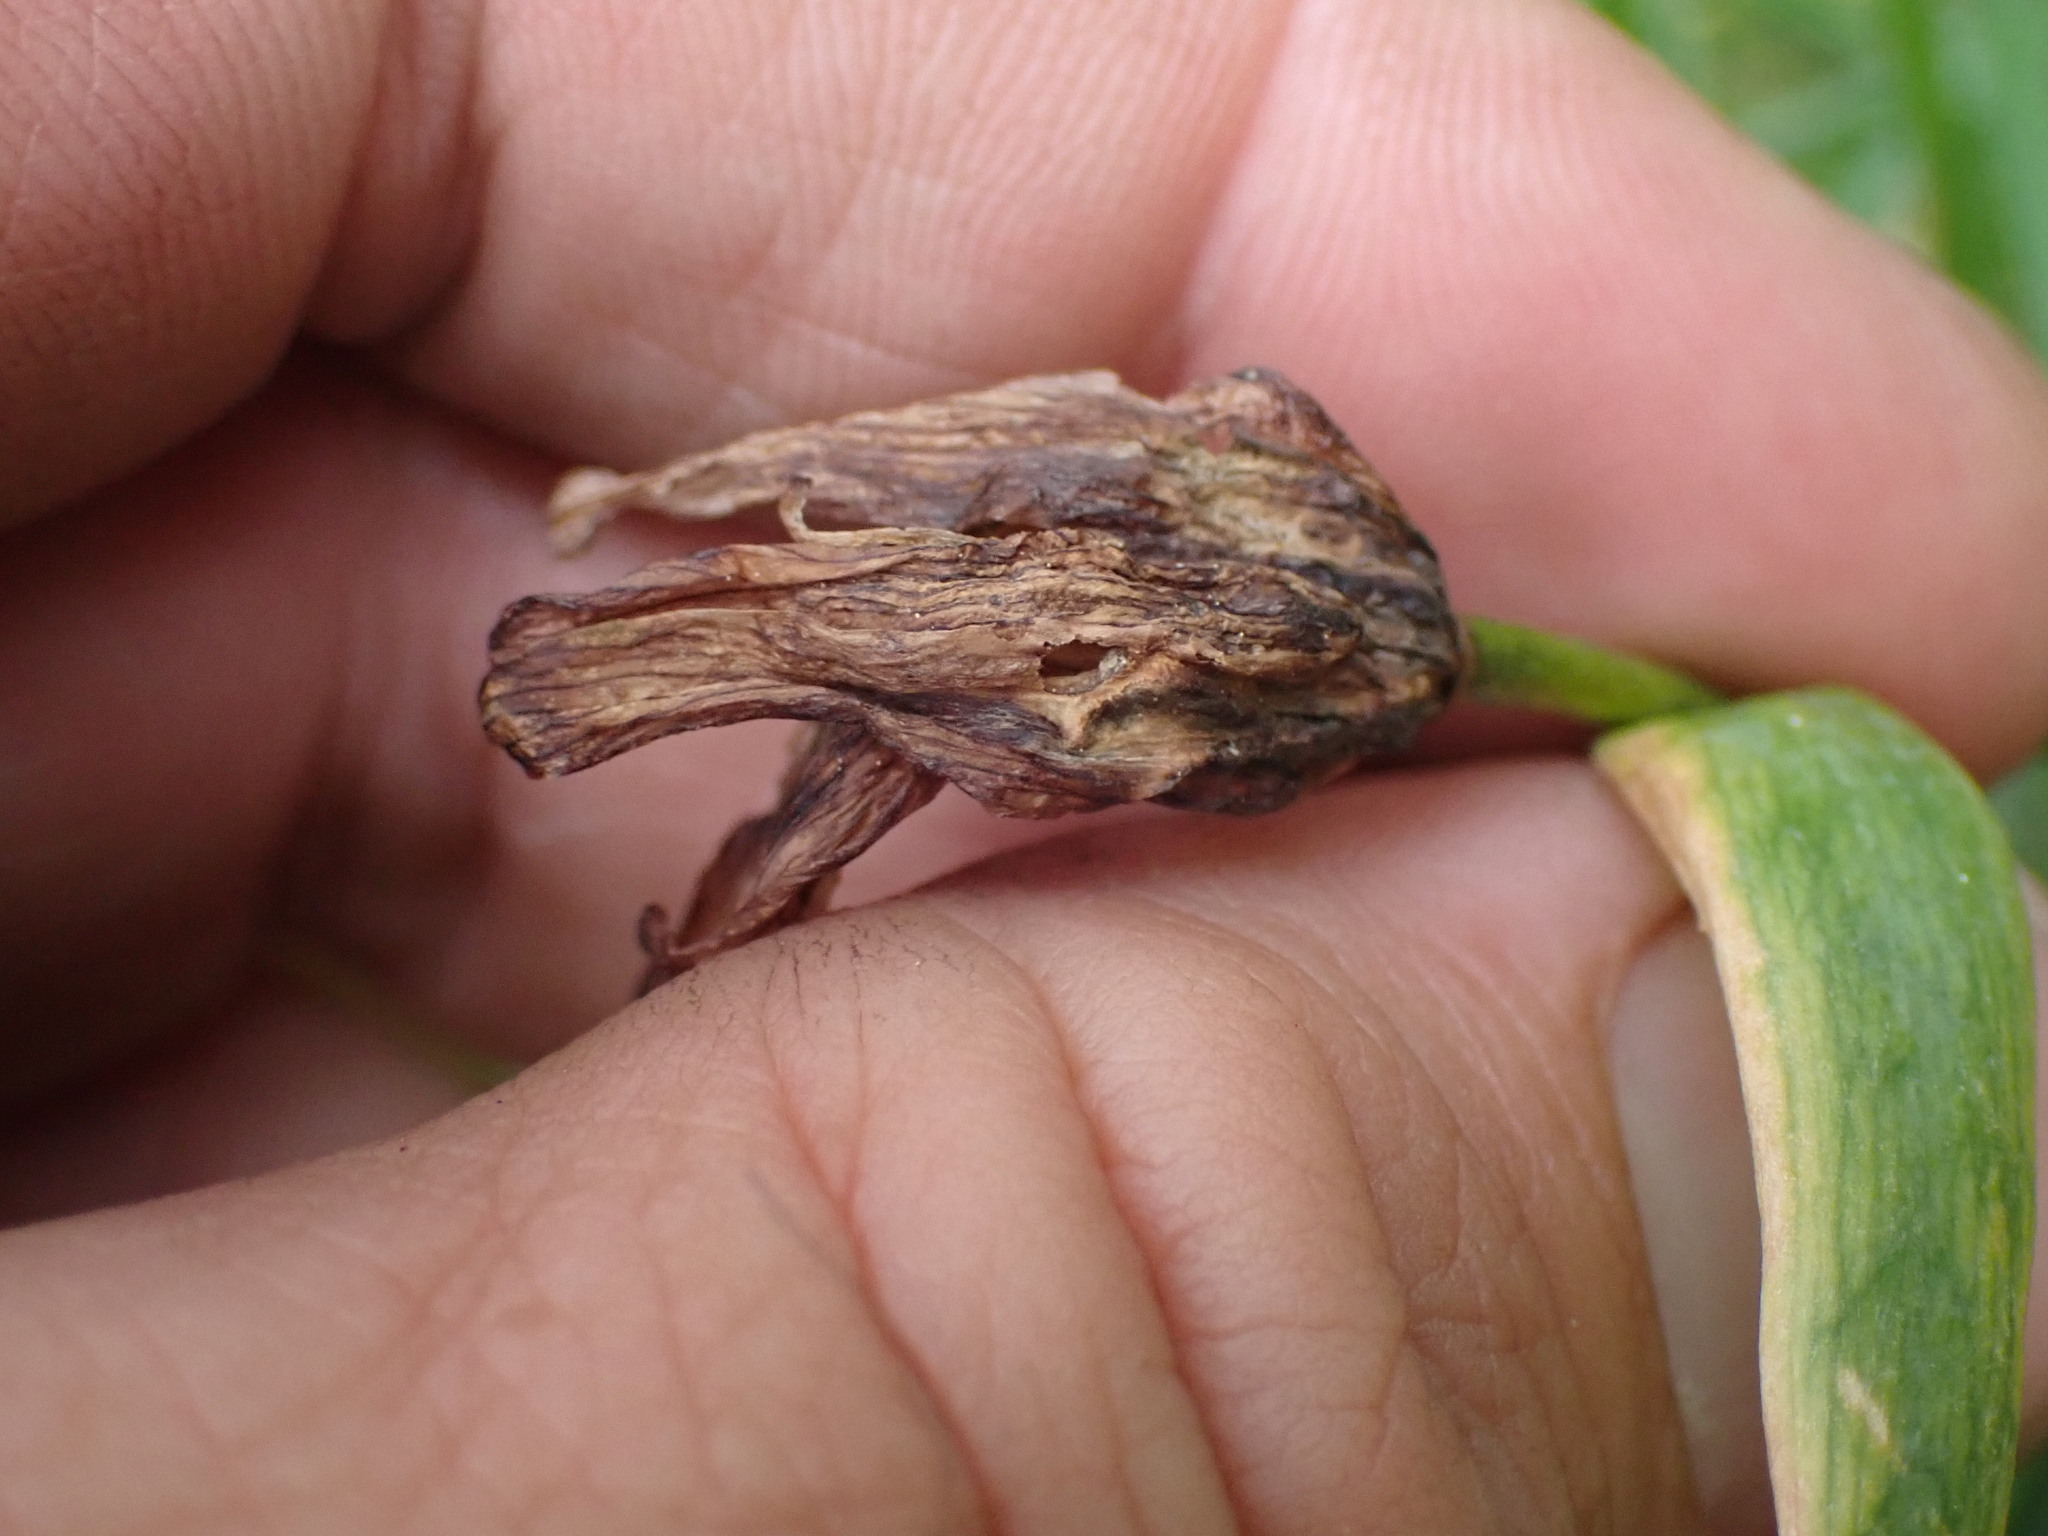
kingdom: Plantae
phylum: Tracheophyta
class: Liliopsida
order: Liliales
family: Liliaceae
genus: Fritillaria
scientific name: Fritillaria affinis
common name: Ojai fritillary
